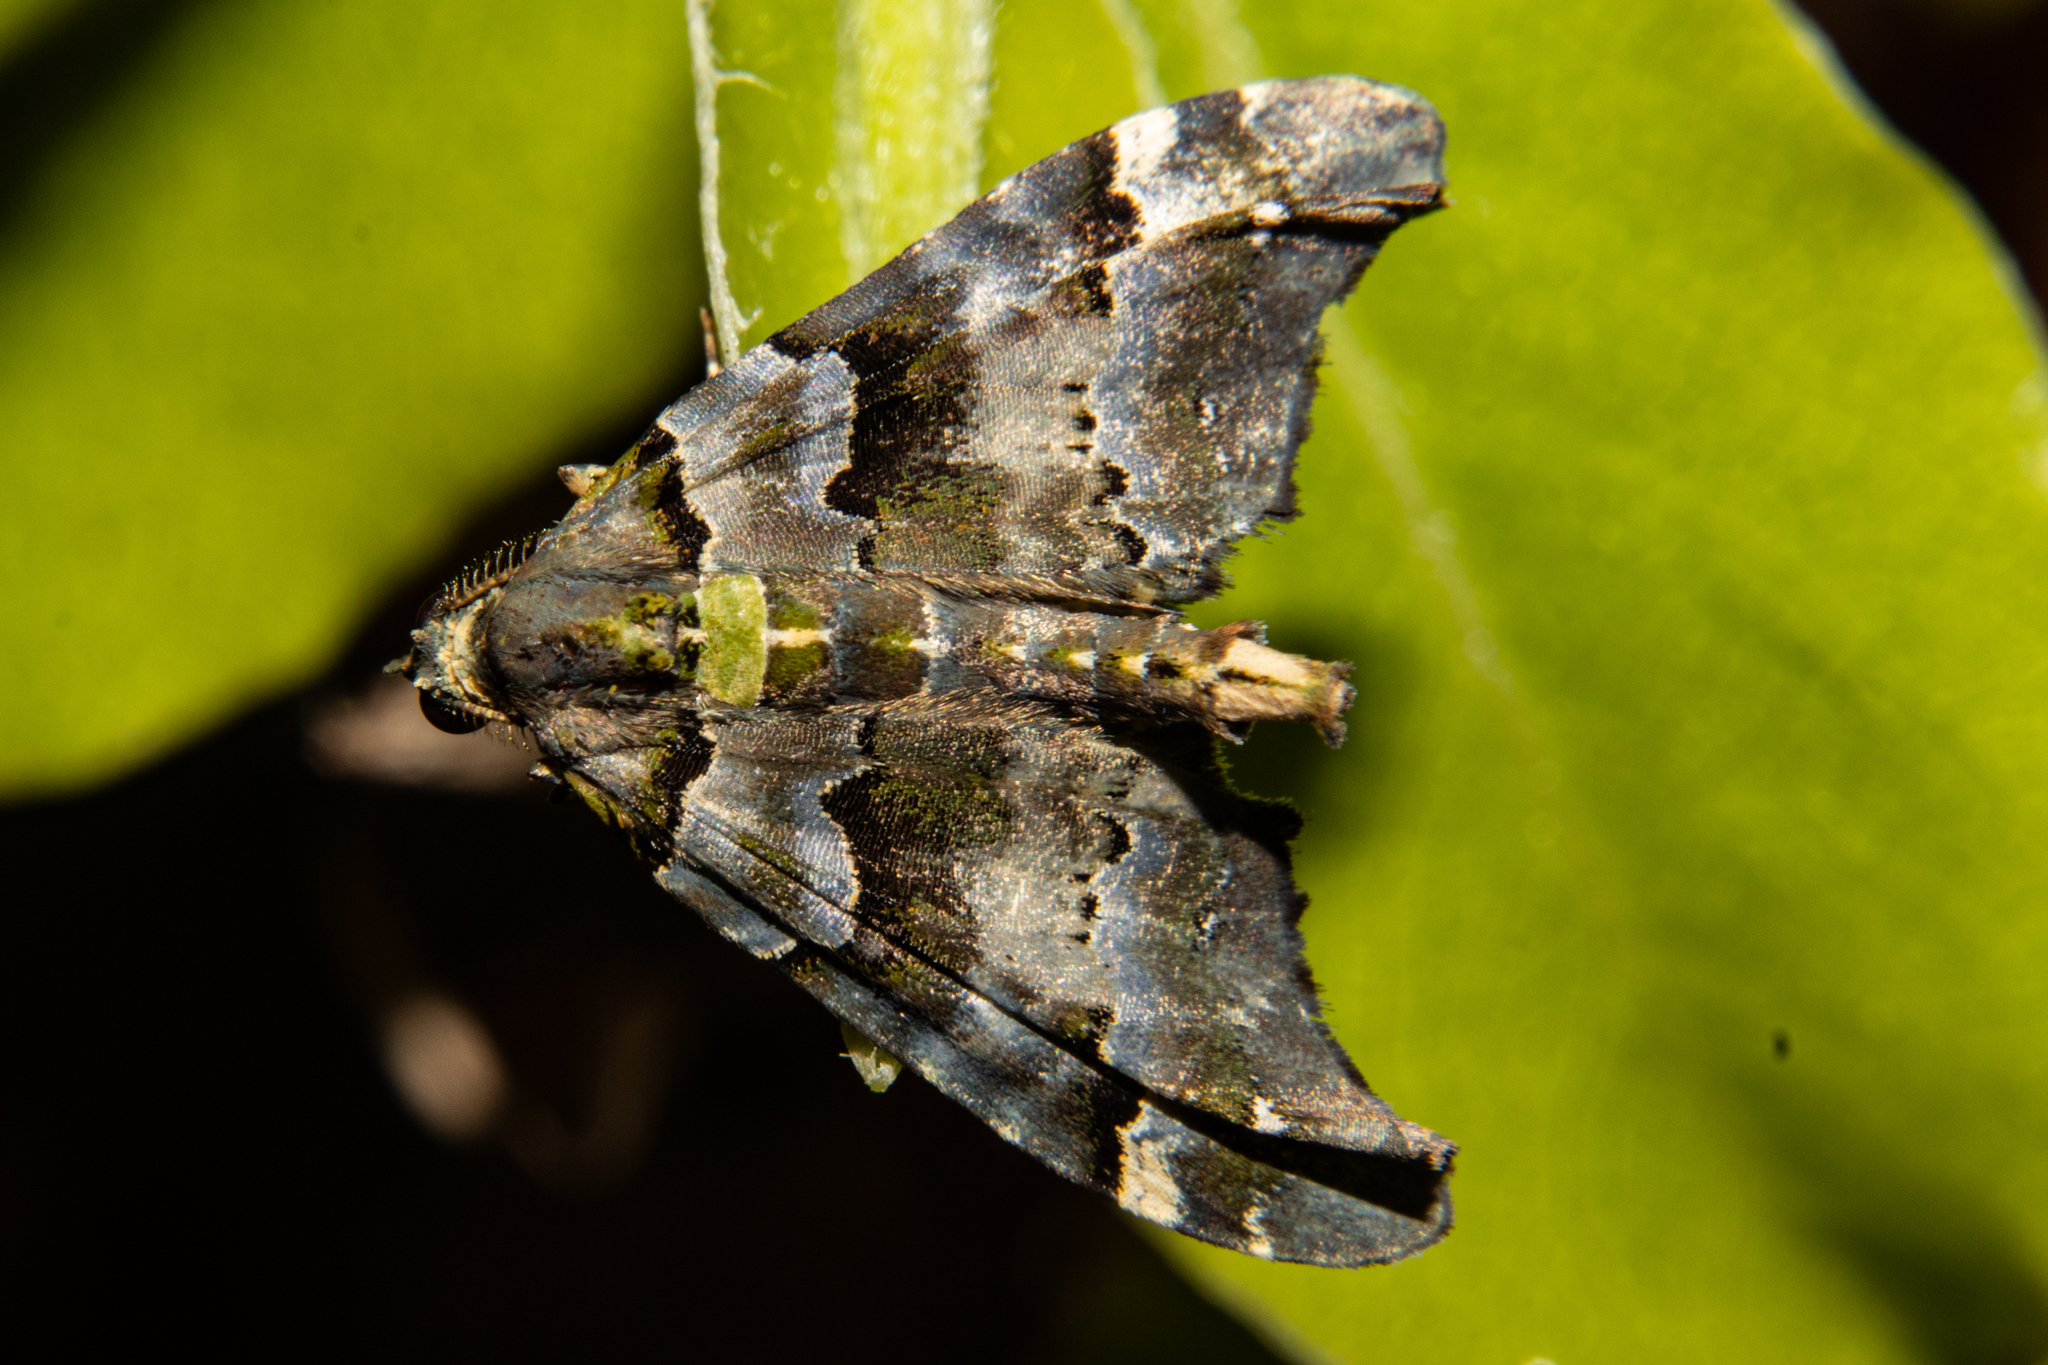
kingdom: Animalia
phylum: Arthropoda
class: Insecta
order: Lepidoptera
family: Geometridae
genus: Elvia
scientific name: Elvia glaucata
